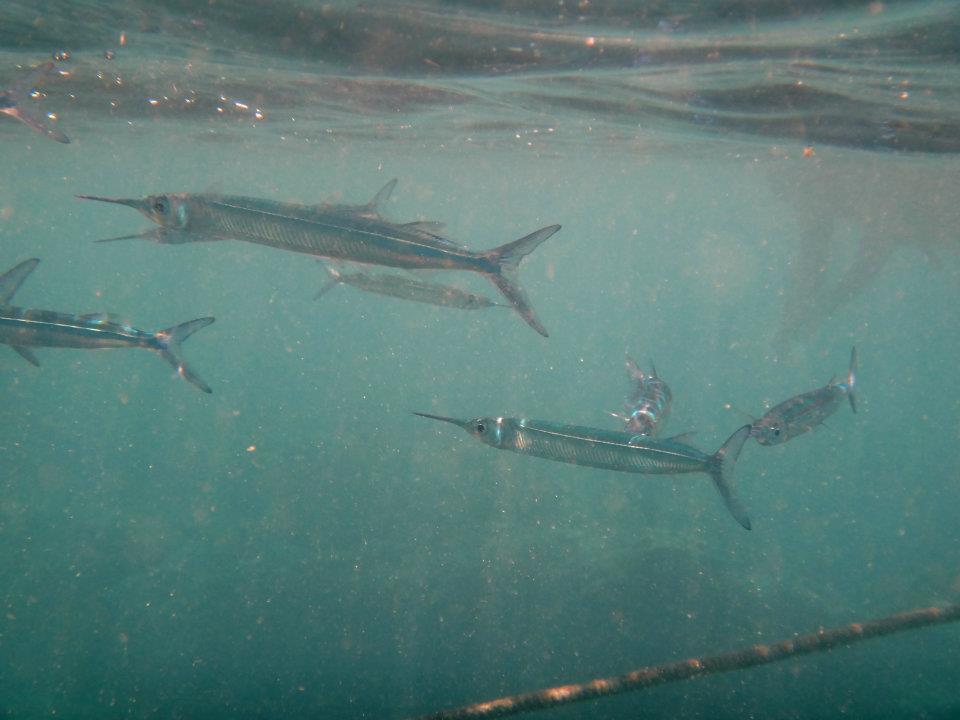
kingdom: Animalia
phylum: Chordata
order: Beloniformes
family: Hemiramphidae
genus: Hyporhamphus
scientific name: Hyporhamphus dussumieri
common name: Dussumier's halfbeak
